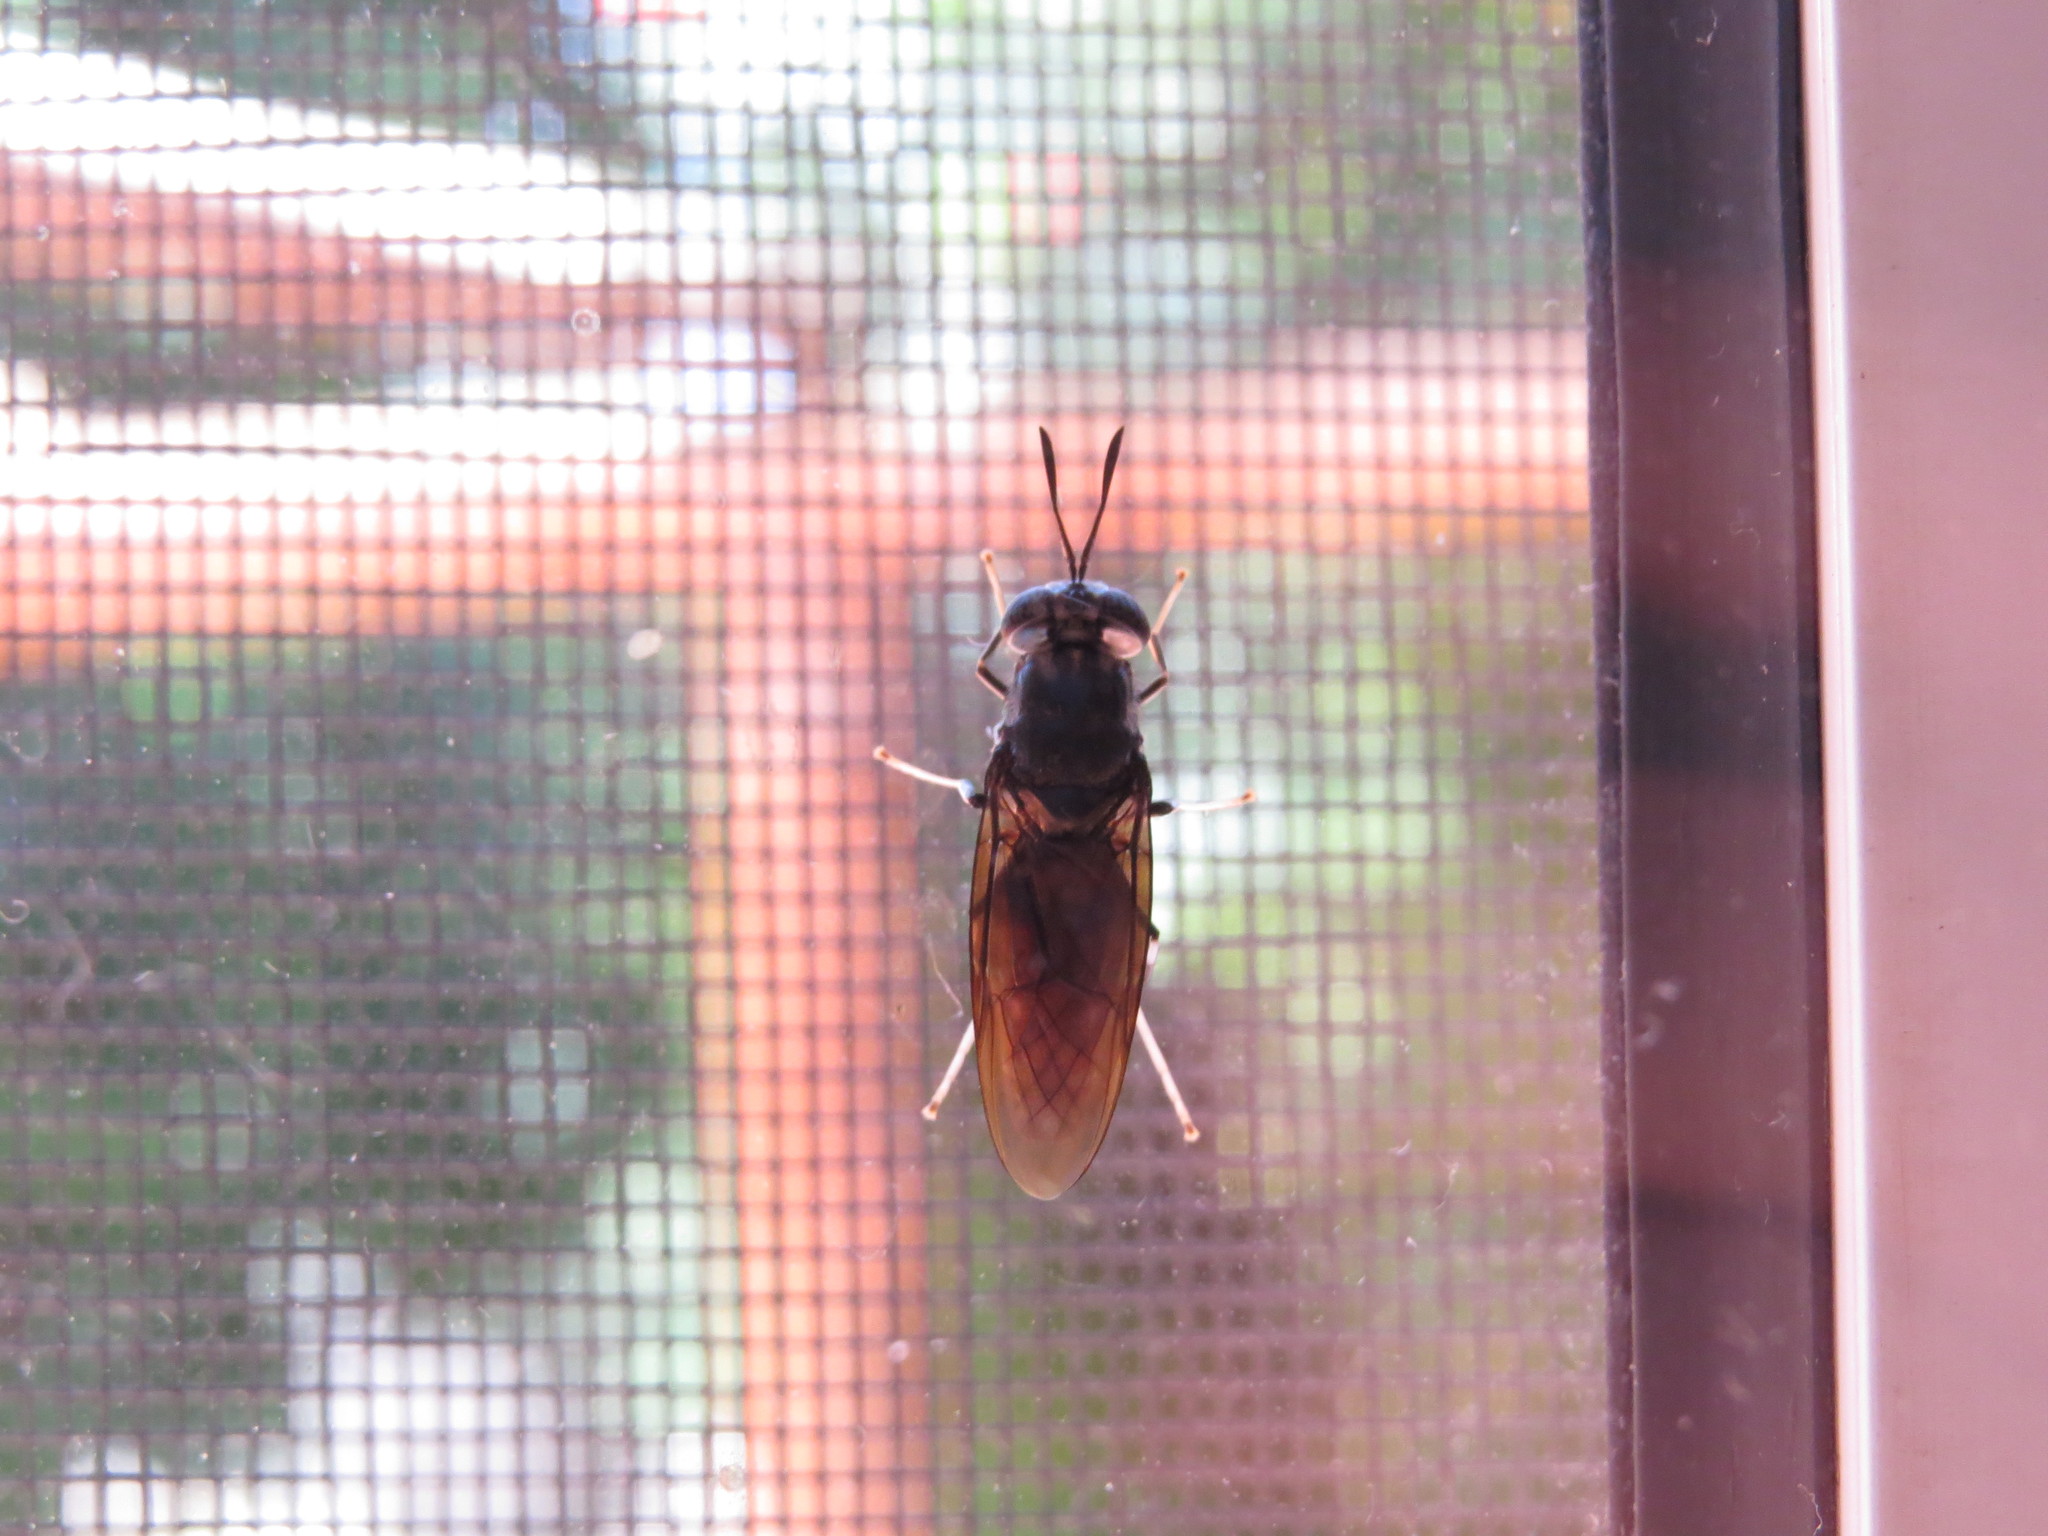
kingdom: Animalia
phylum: Arthropoda
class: Insecta
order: Diptera
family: Stratiomyidae
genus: Hermetia
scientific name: Hermetia illucens
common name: Black soldier fly
